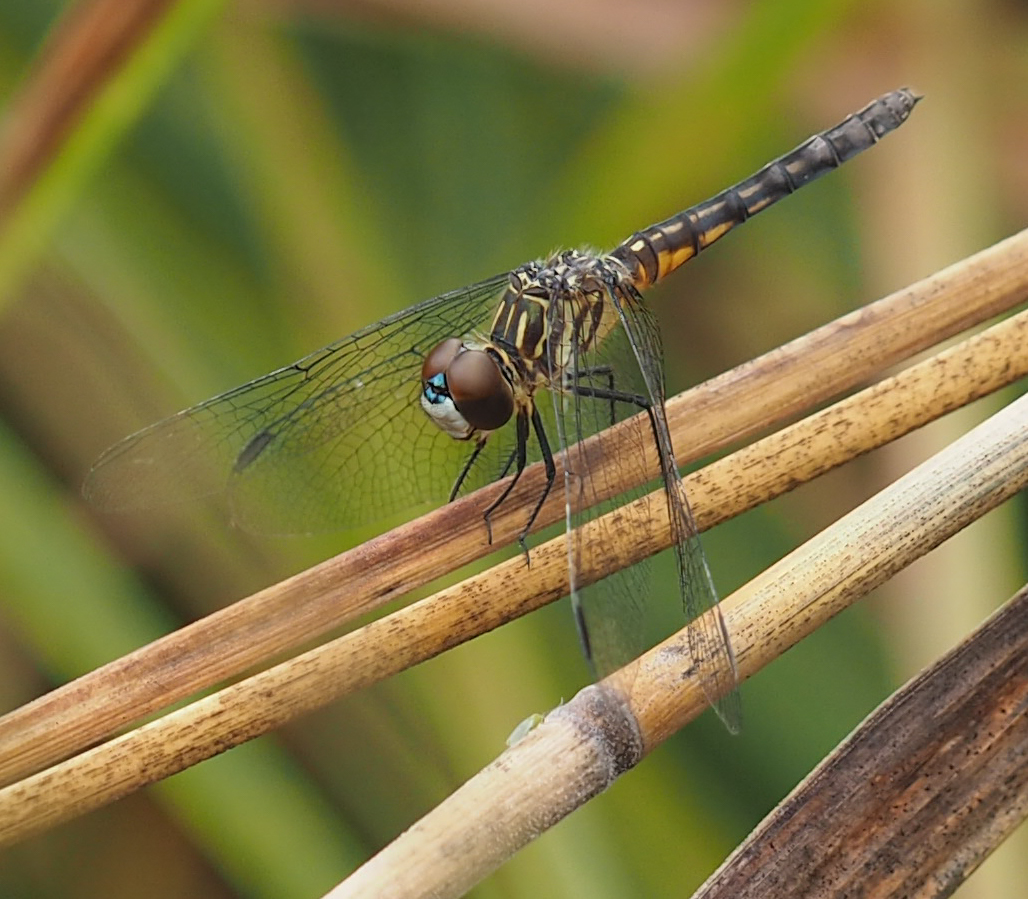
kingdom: Animalia
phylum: Arthropoda
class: Insecta
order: Odonata
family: Libellulidae
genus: Pachydiplax
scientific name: Pachydiplax longipennis
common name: Blue dasher
